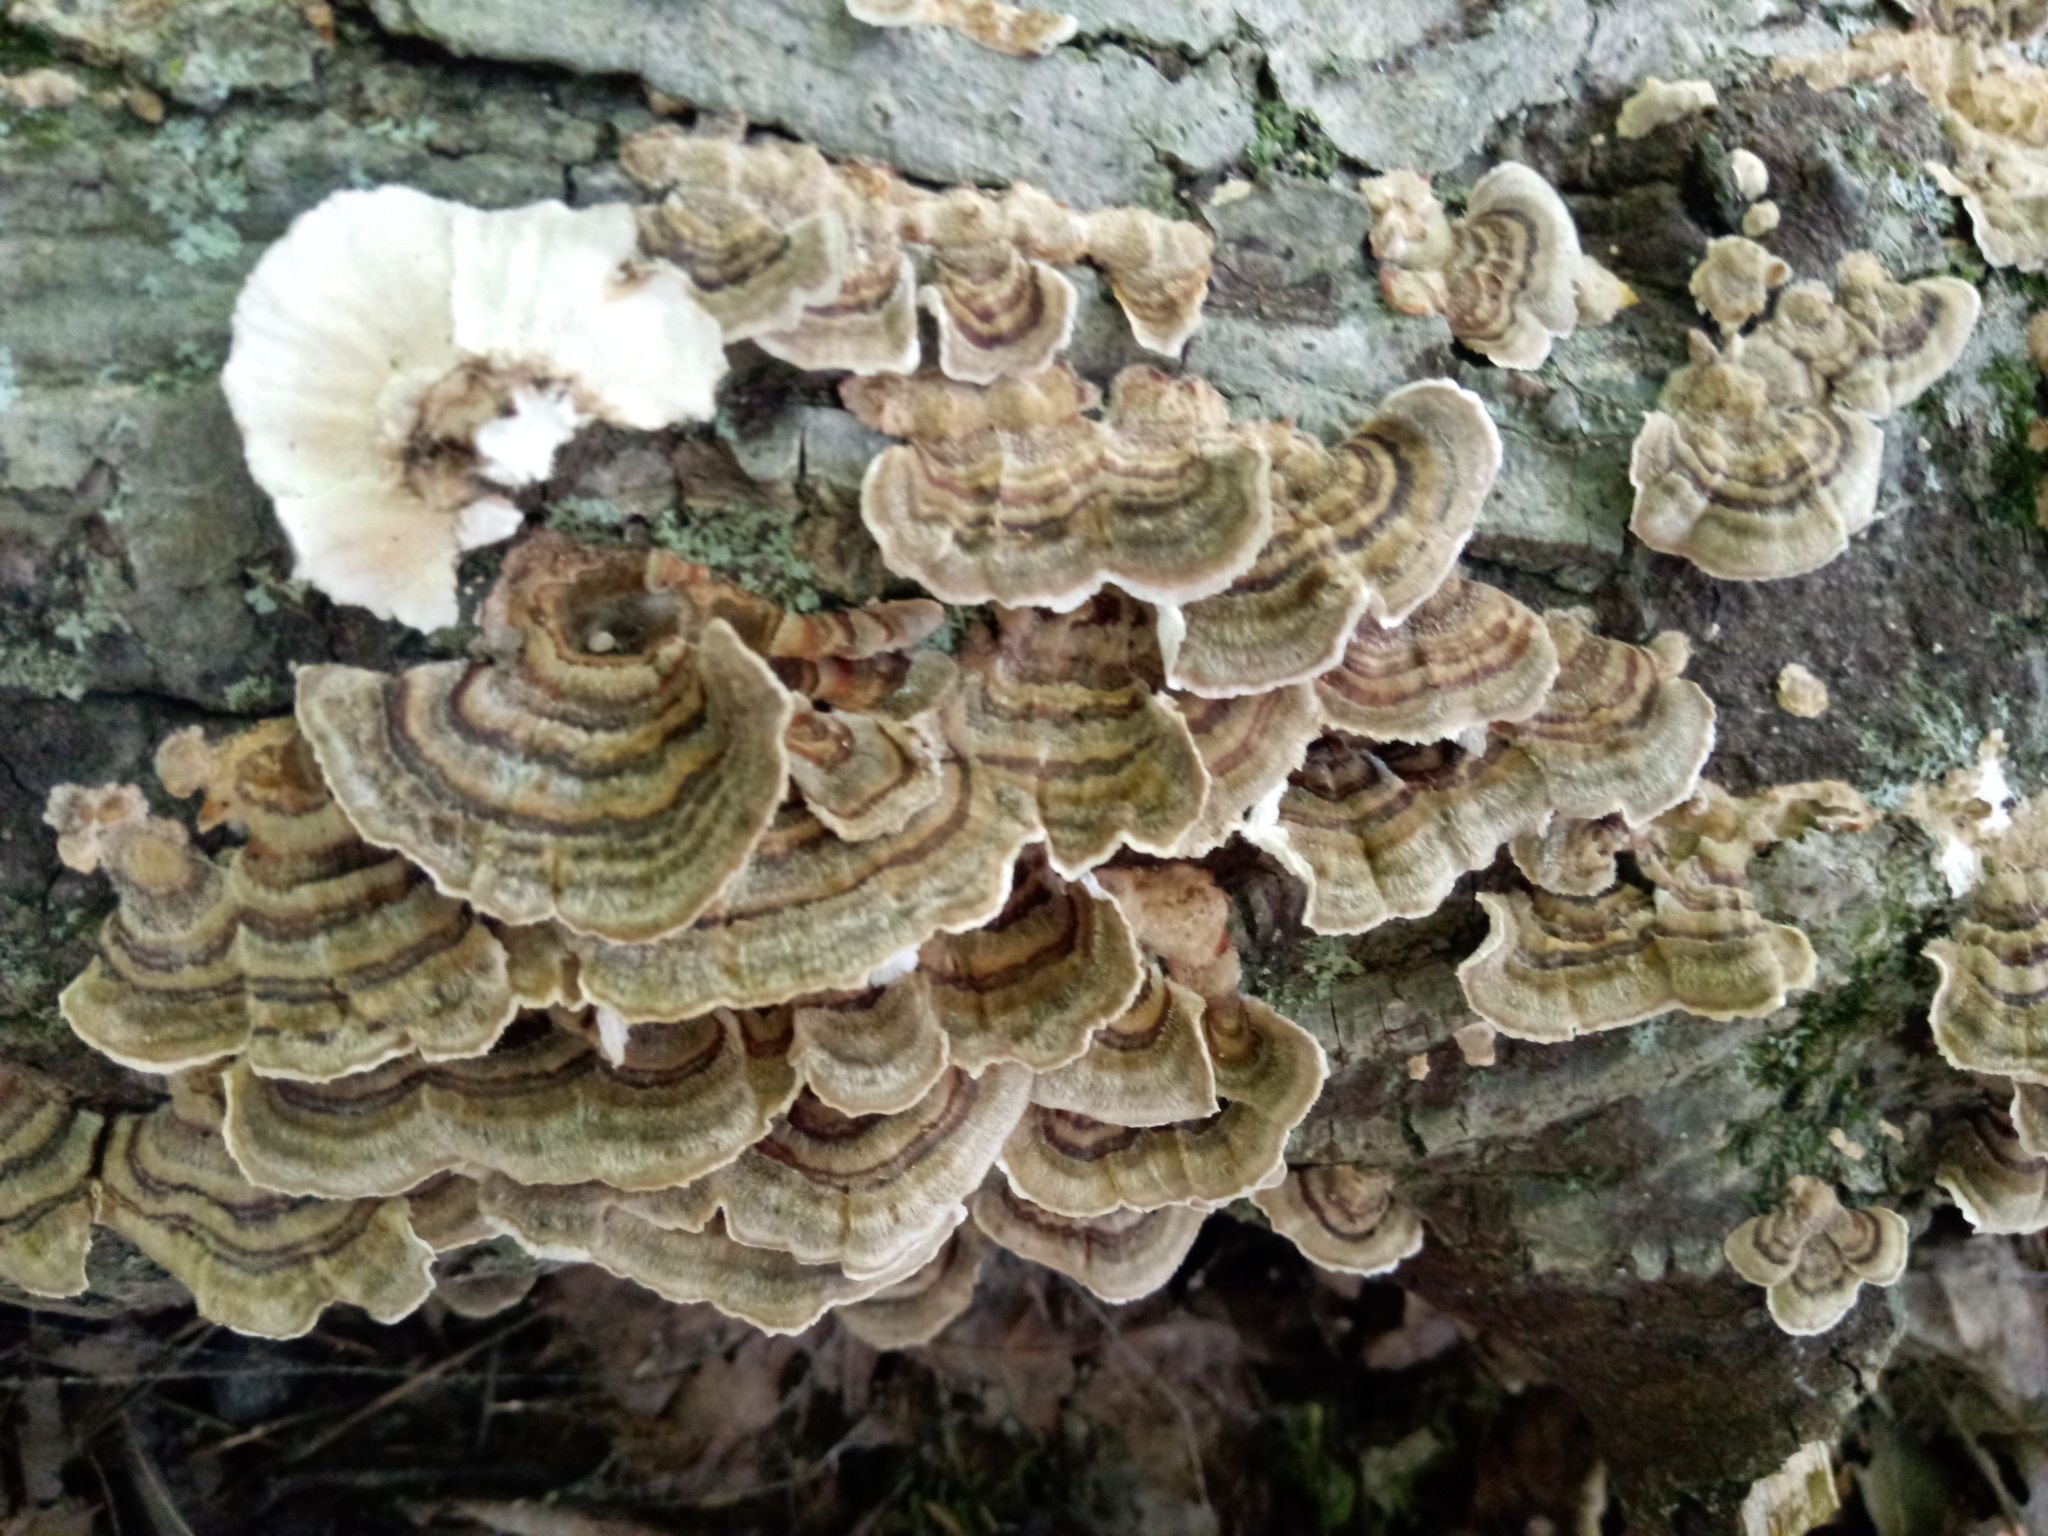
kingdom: Fungi
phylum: Basidiomycota
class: Agaricomycetes
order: Polyporales
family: Polyporaceae
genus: Trametes
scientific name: Trametes versicolor
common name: Turkeytail
